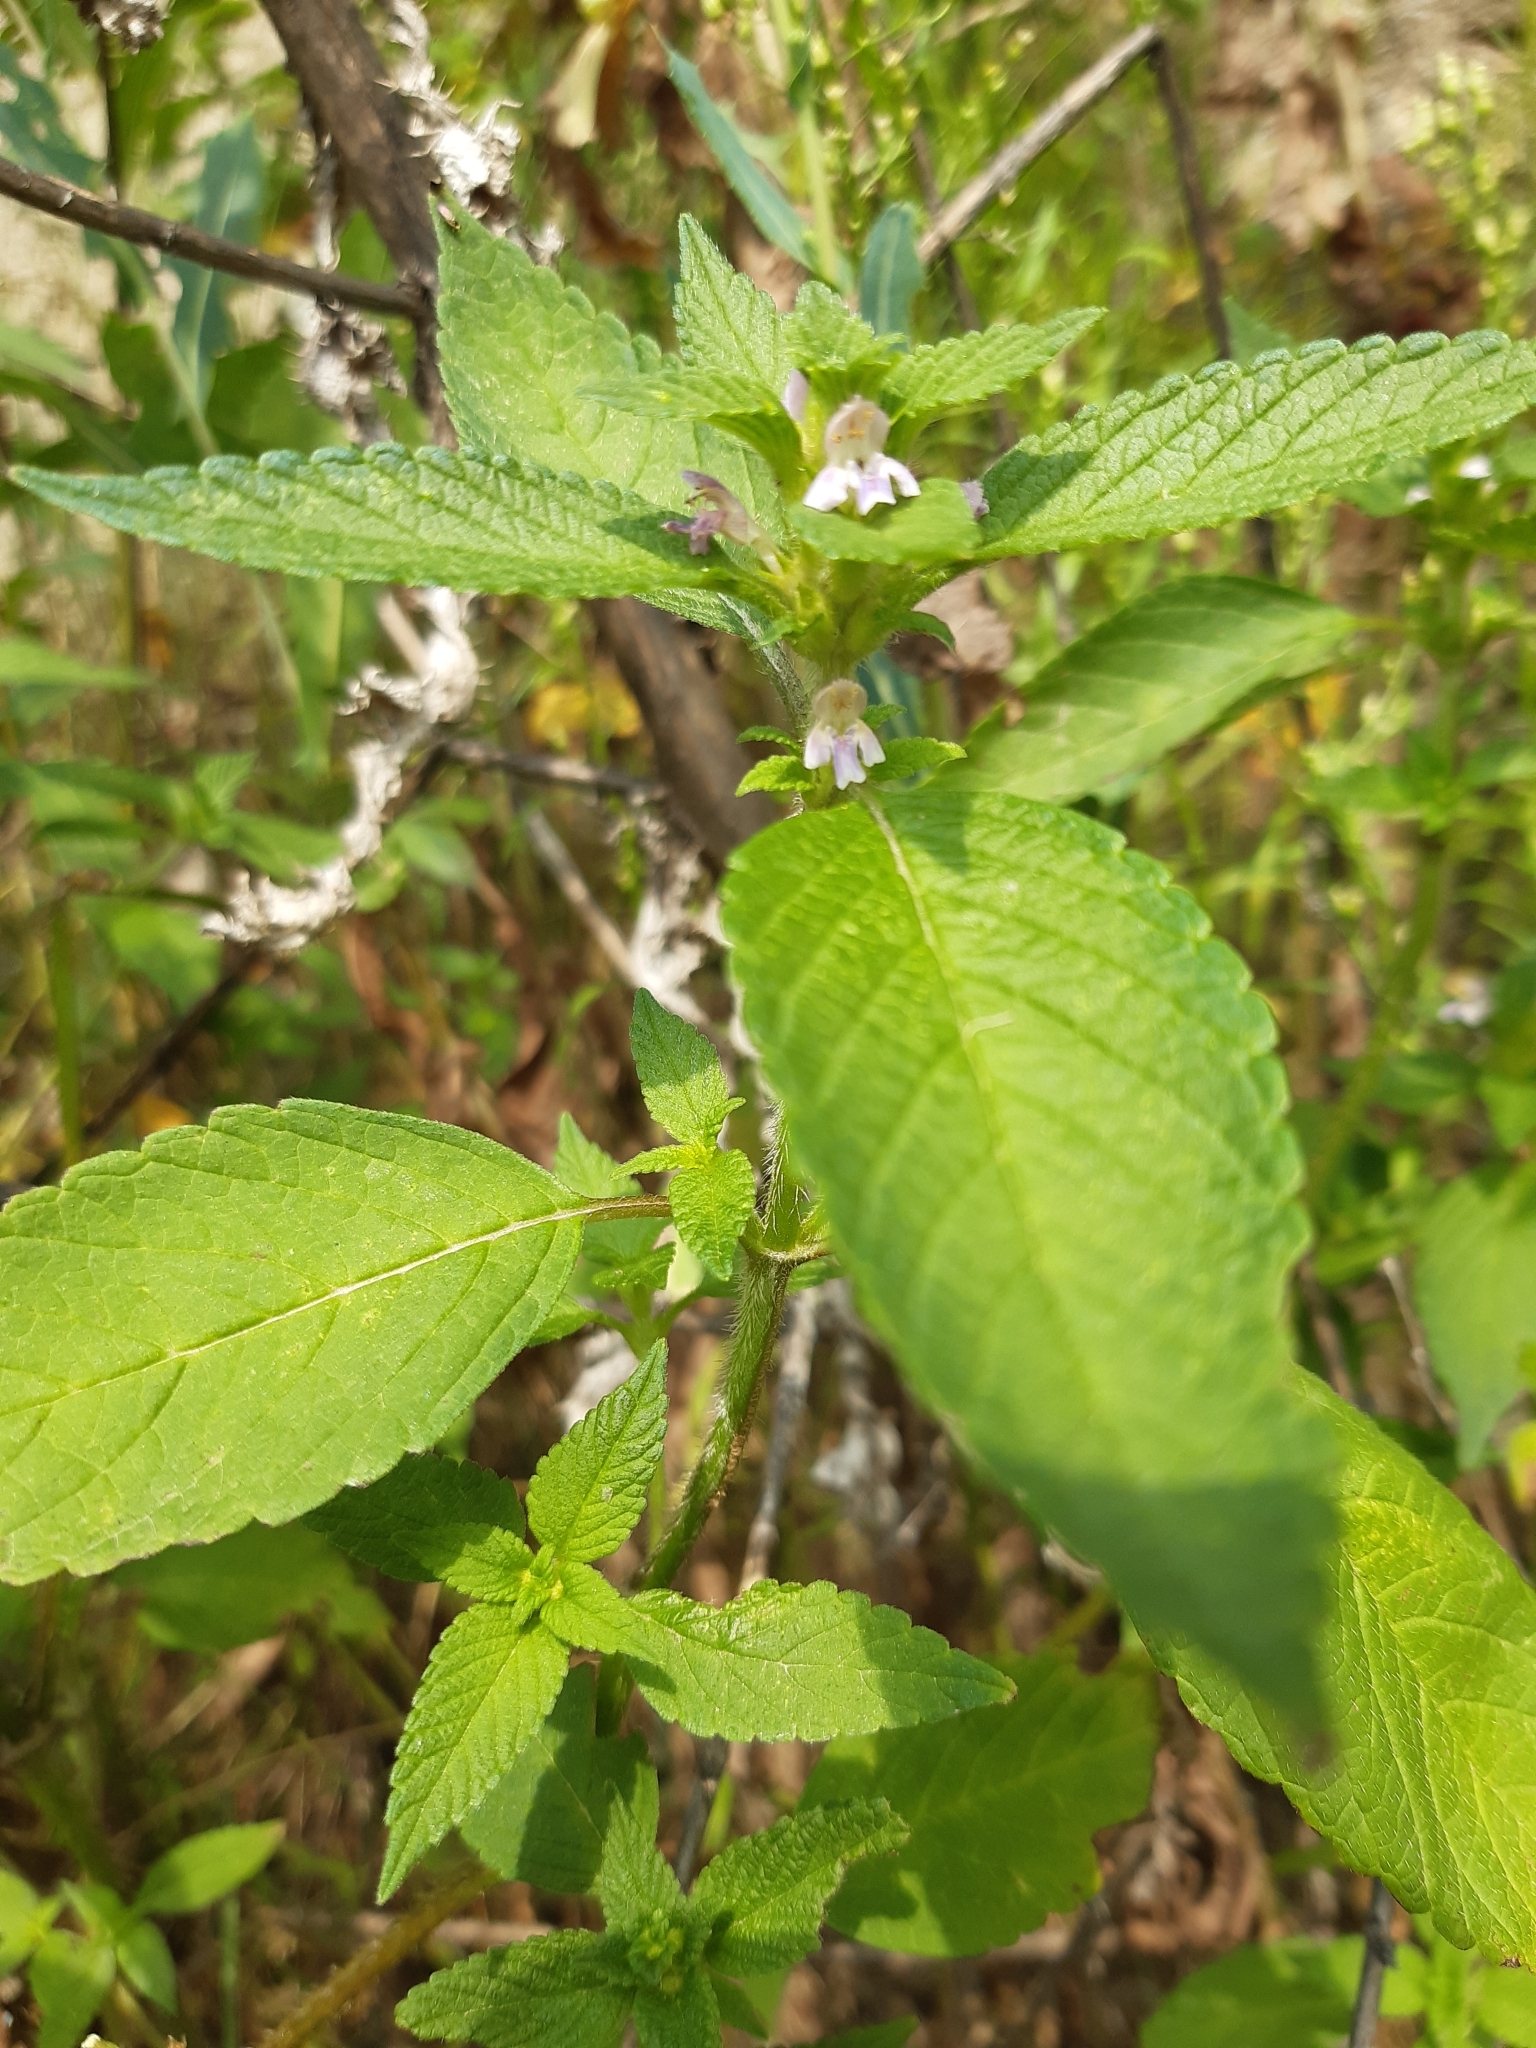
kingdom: Plantae
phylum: Tracheophyta
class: Magnoliopsida
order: Lamiales
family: Lamiaceae
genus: Galeopsis
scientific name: Galeopsis bifida
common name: Bifid hemp-nettle
